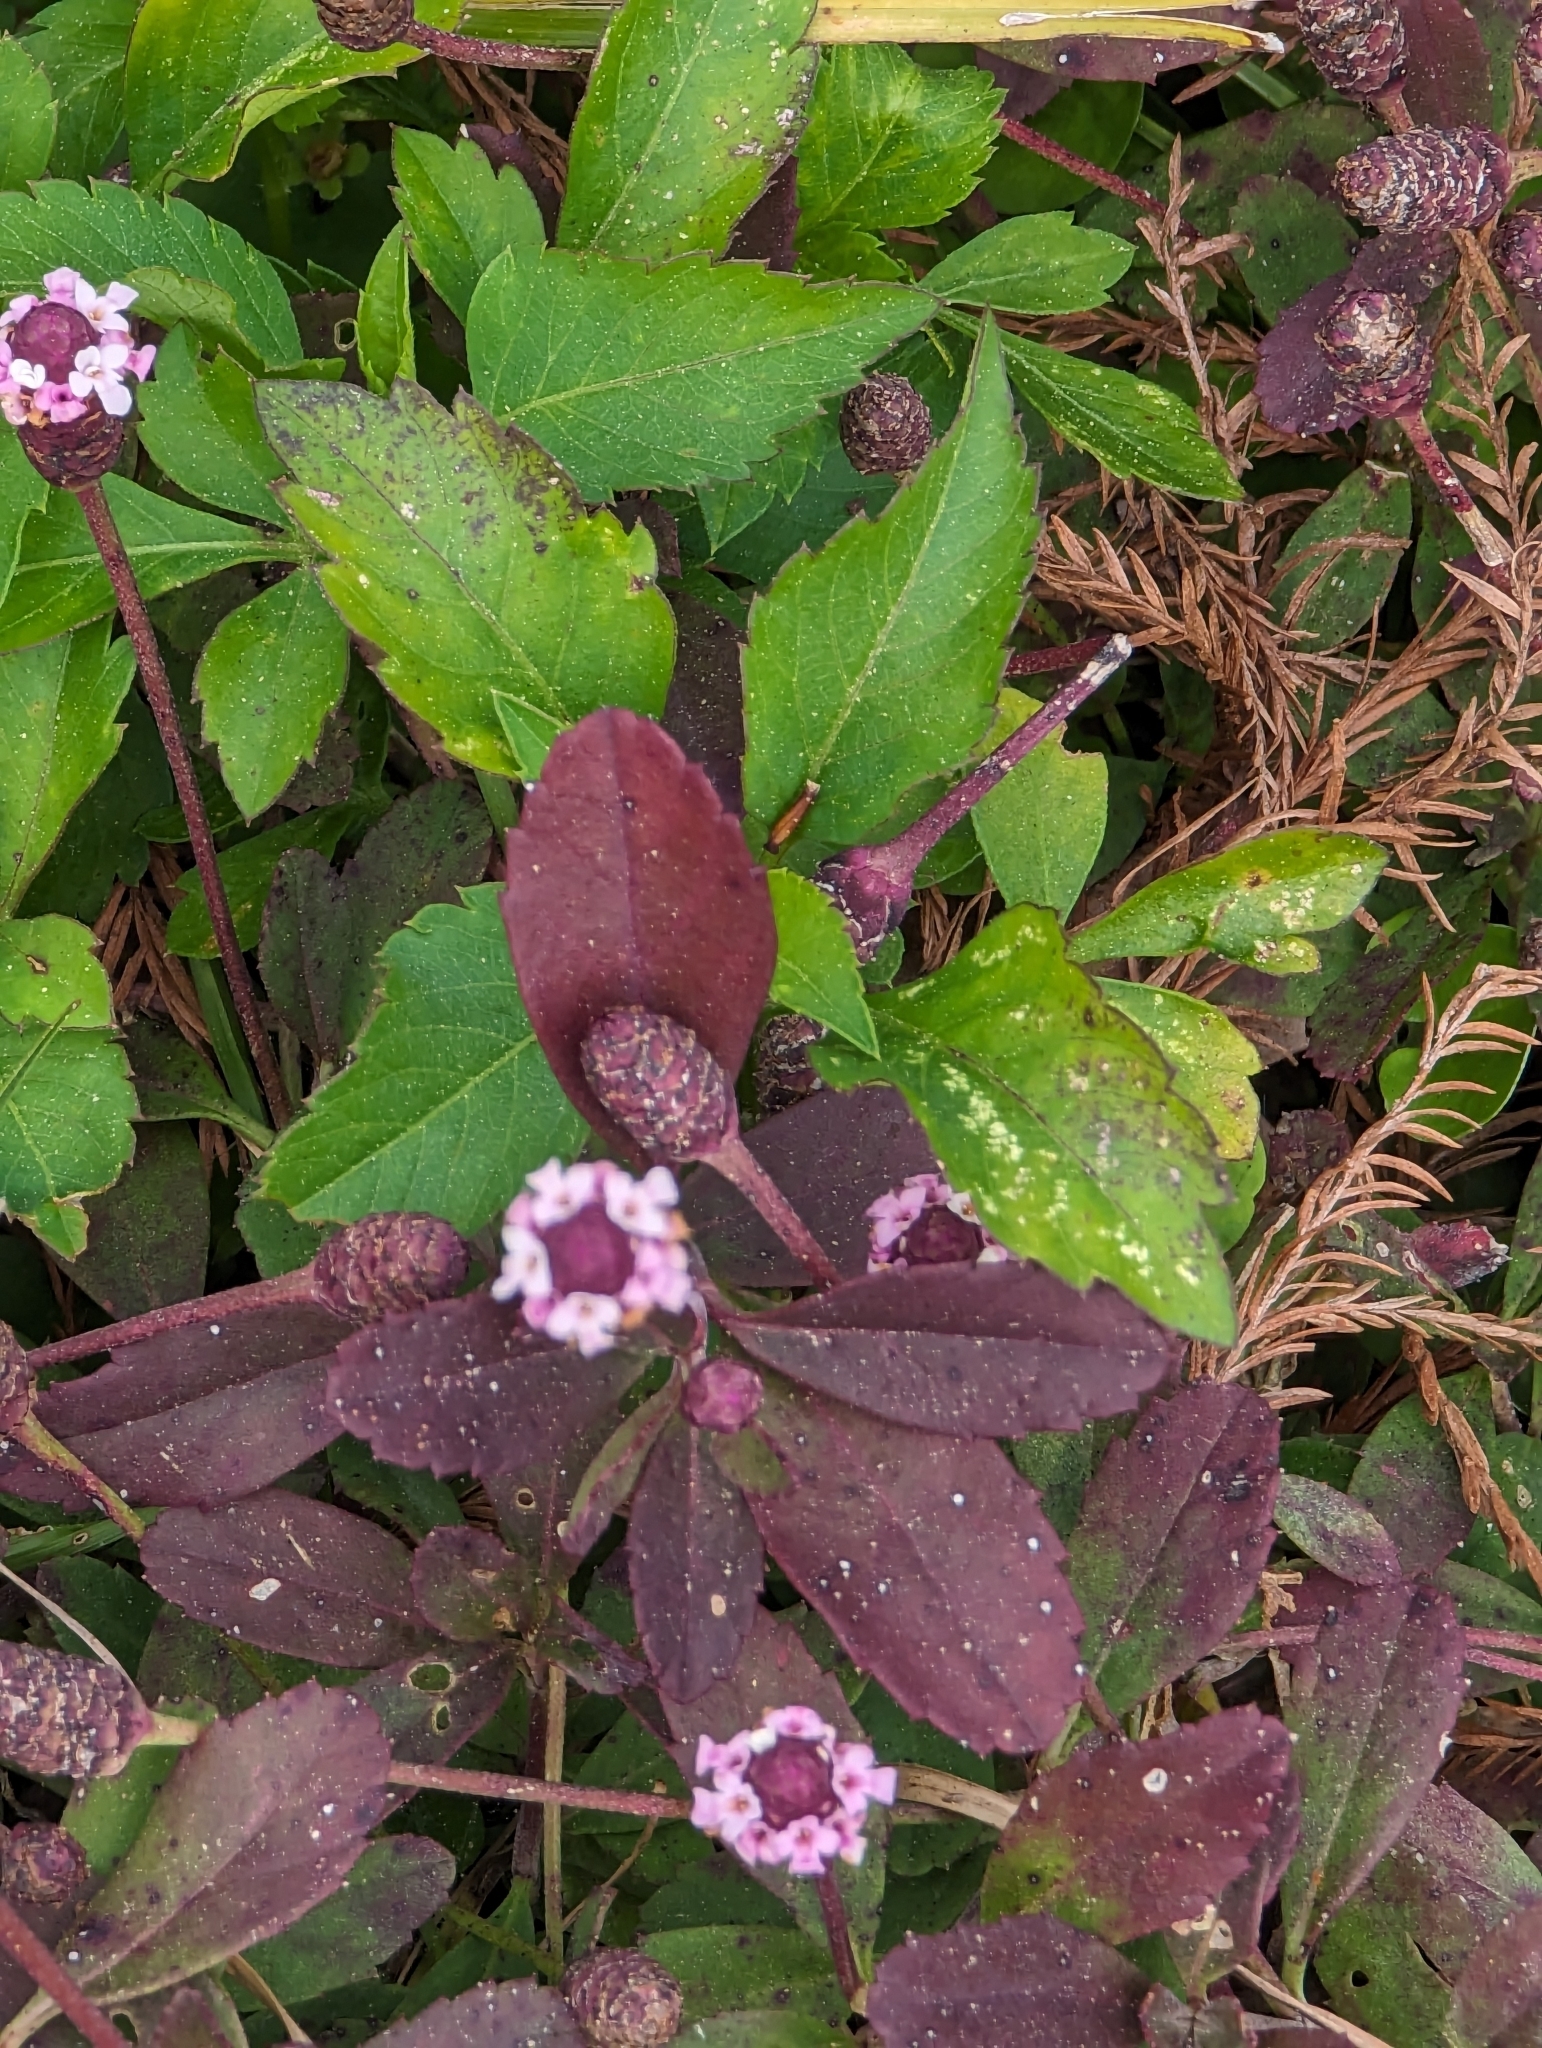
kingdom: Plantae
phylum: Tracheophyta
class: Magnoliopsida
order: Lamiales
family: Verbenaceae
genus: Phyla
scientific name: Phyla nodiflora
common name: Frogfruit
